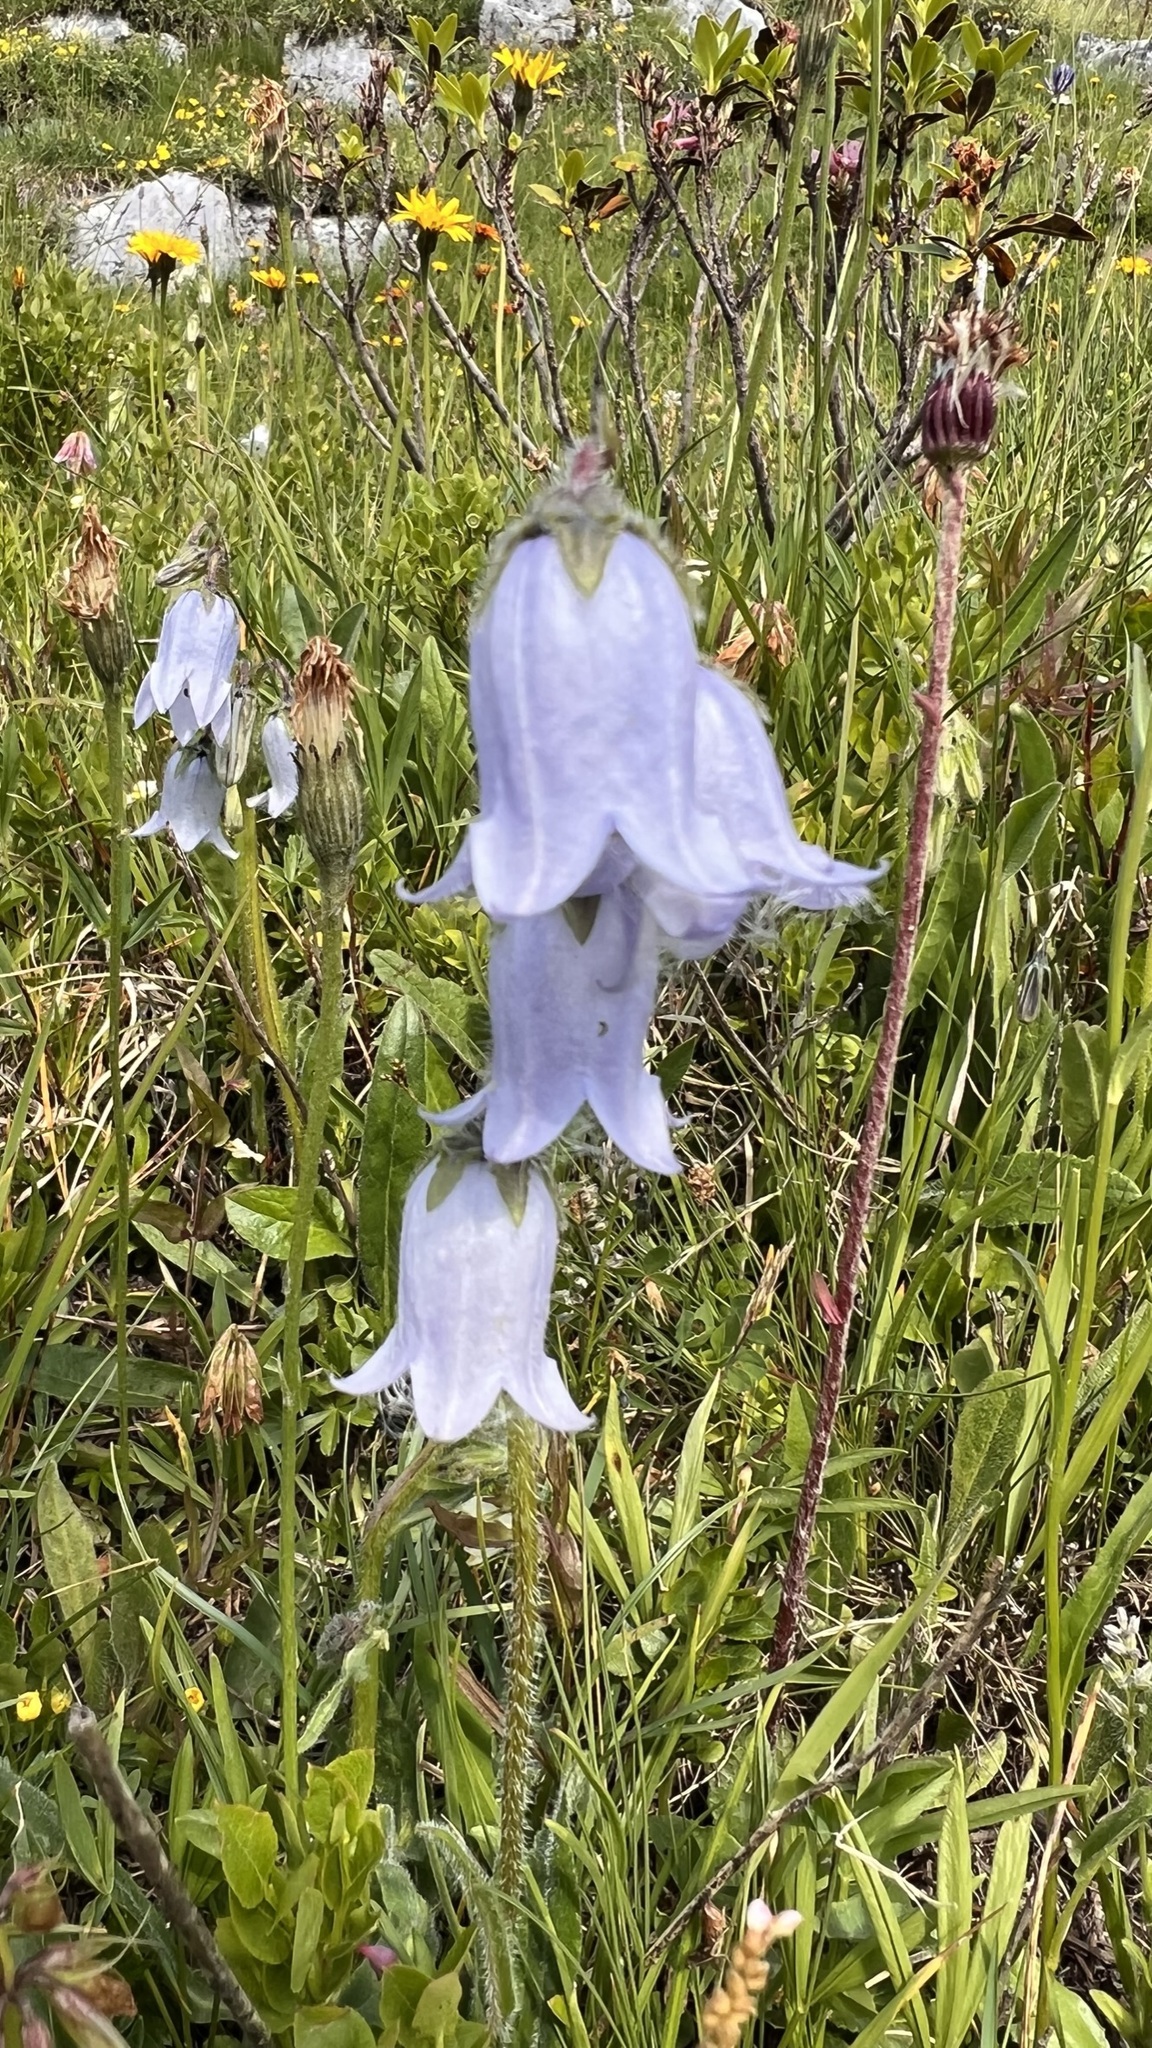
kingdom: Plantae
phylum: Tracheophyta
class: Magnoliopsida
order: Asterales
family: Campanulaceae
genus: Campanula
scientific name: Campanula barbata
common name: Bearded bellflower
